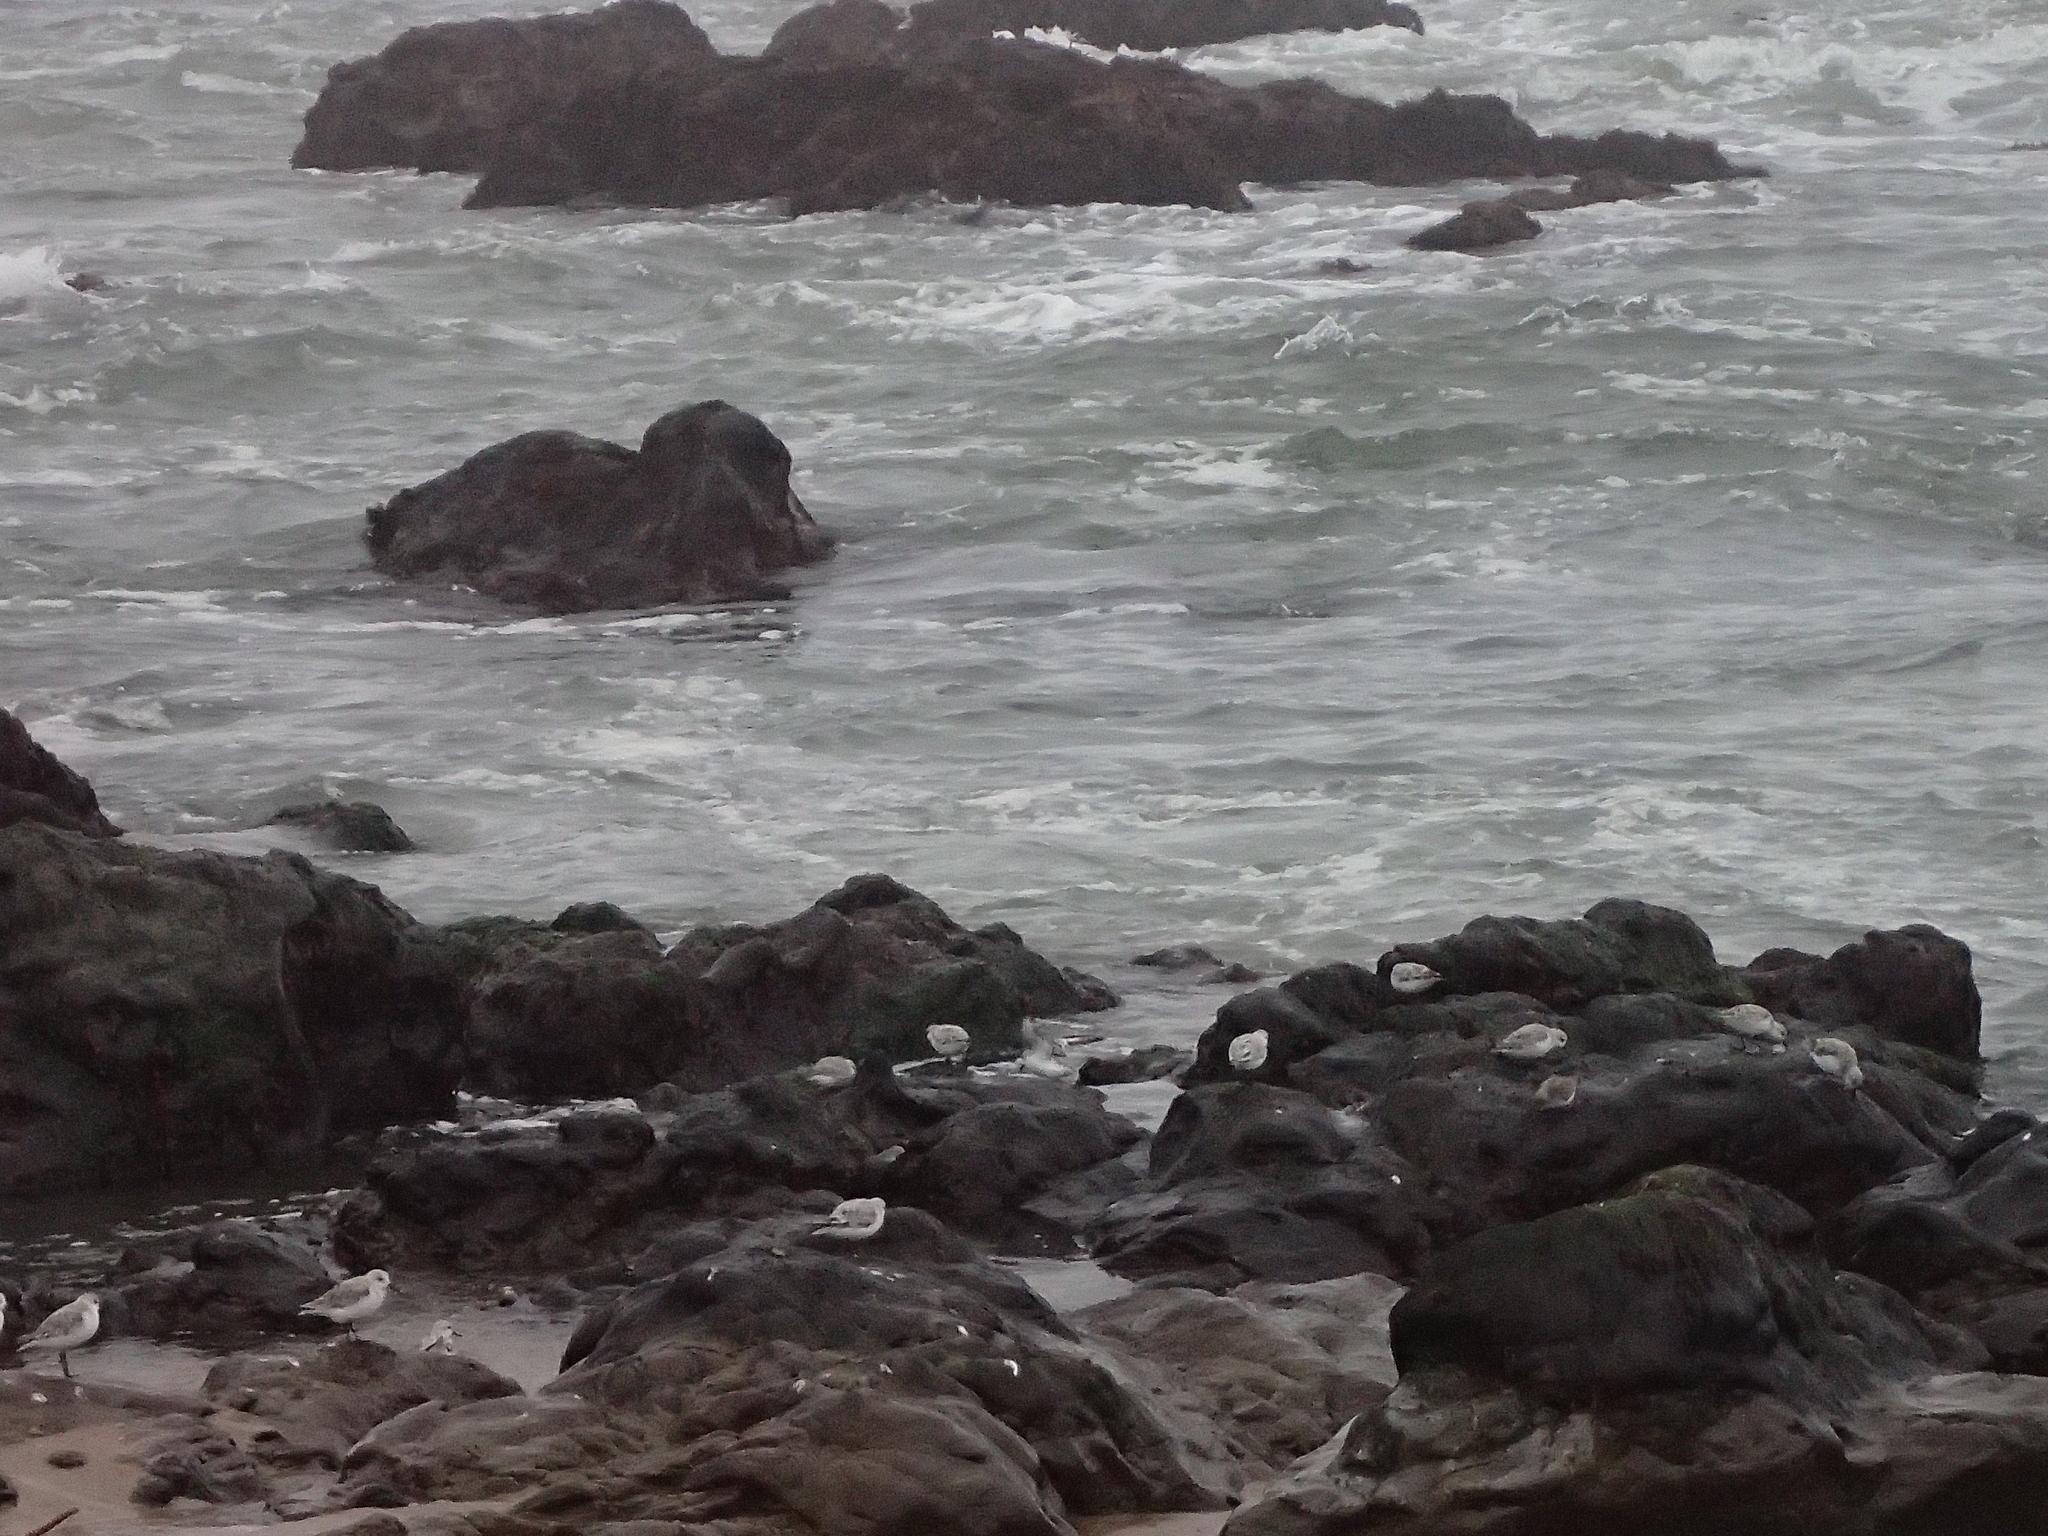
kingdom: Animalia
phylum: Chordata
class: Aves
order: Charadriiformes
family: Scolopacidae
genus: Calidris
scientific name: Calidris alba
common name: Sanderling
